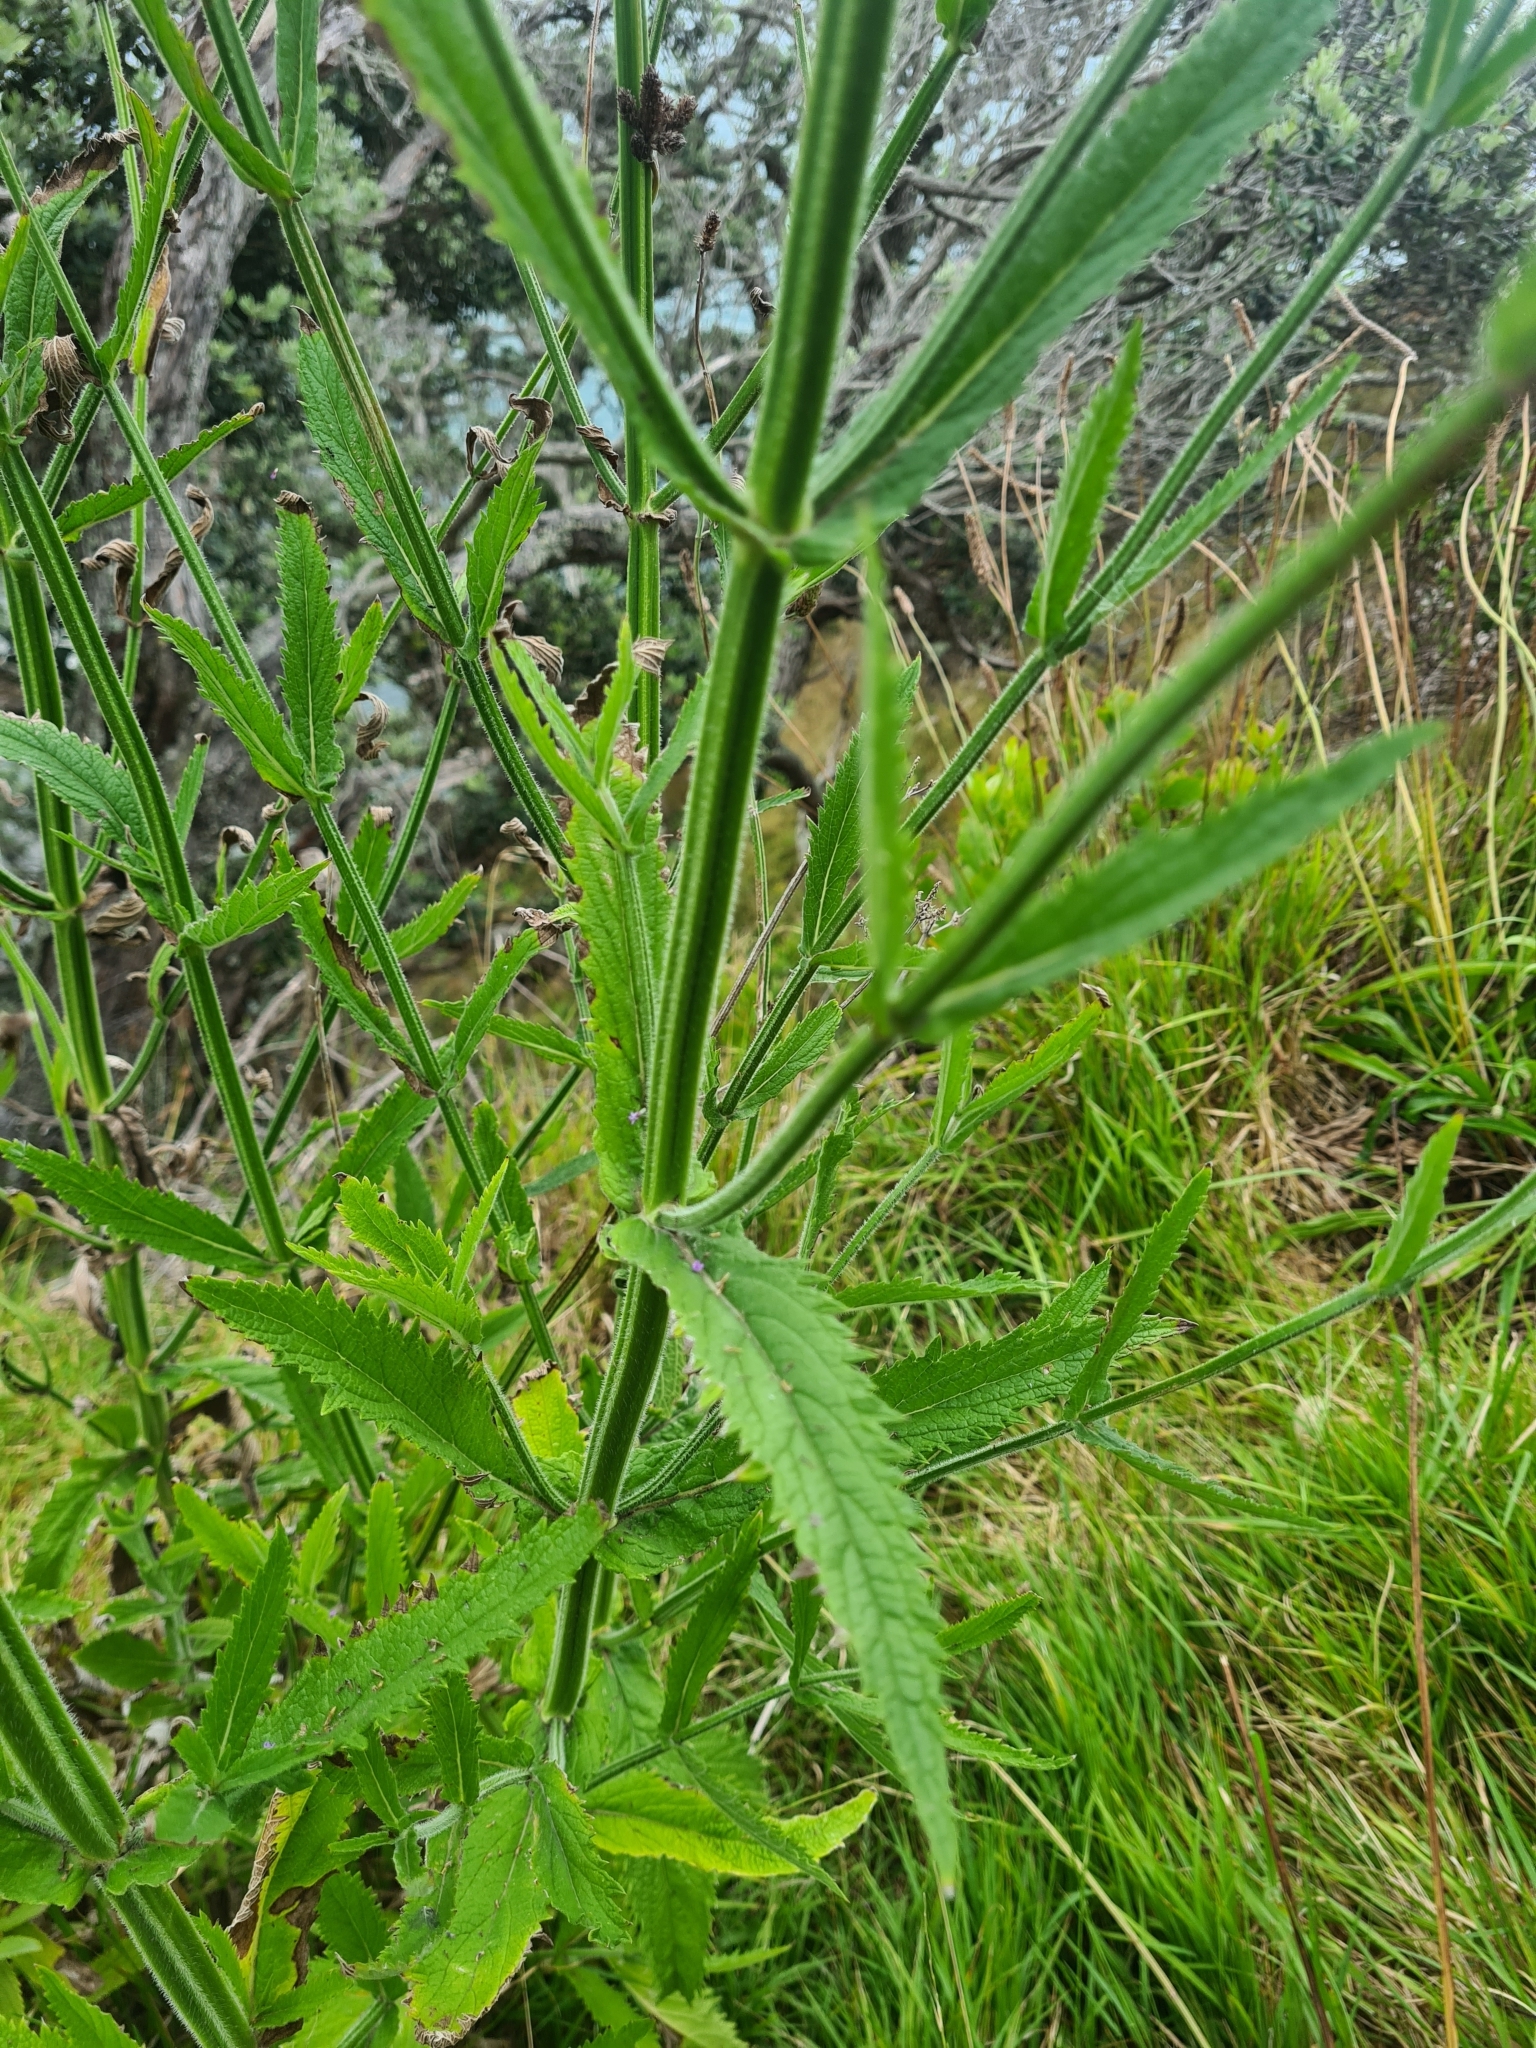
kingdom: Plantae
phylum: Tracheophyta
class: Magnoliopsida
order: Lamiales
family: Verbenaceae
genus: Verbena
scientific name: Verbena incompta
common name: Purpletop vervain
